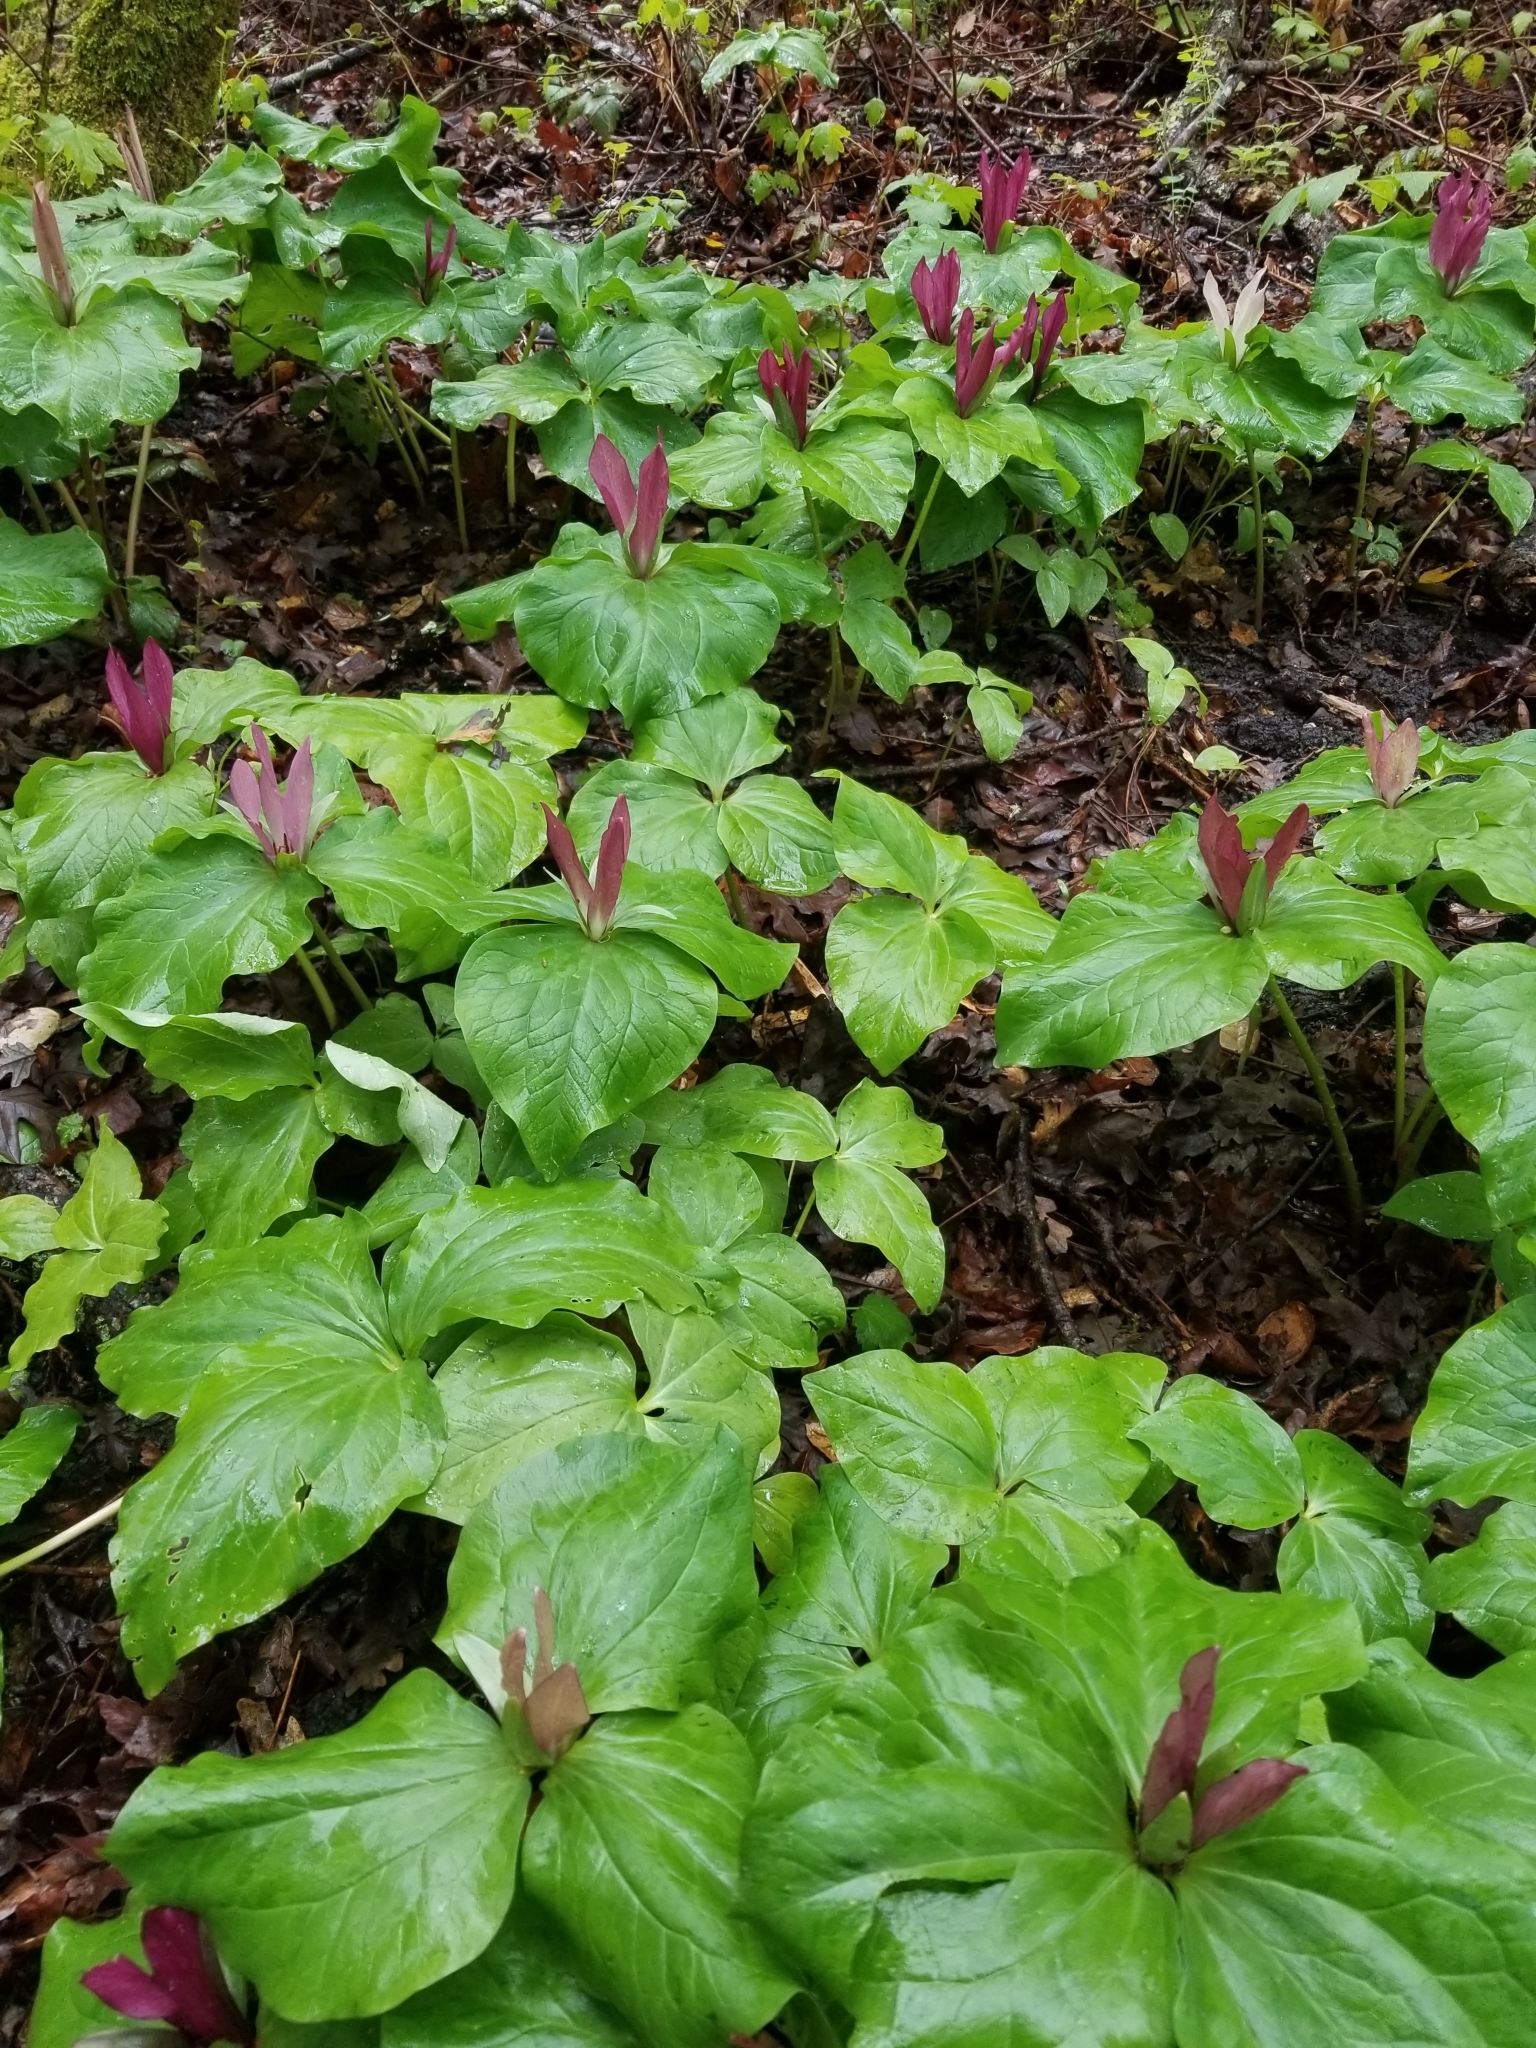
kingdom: Plantae
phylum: Tracheophyta
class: Liliopsida
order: Liliales
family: Melanthiaceae
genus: Trillium
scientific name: Trillium chloropetalum
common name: Giant trillium
